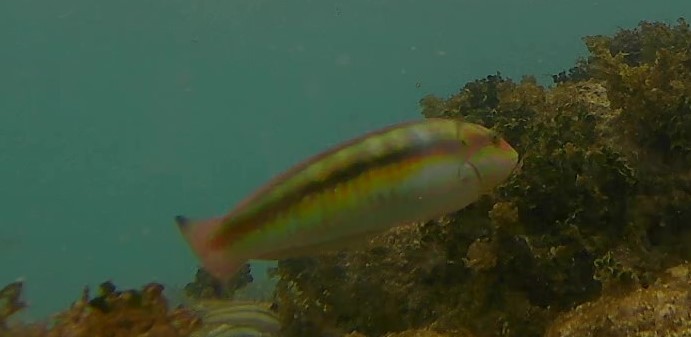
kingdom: Animalia
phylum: Chordata
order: Perciformes
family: Labridae
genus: Halichoeres
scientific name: Halichoeres bivittatus
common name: Slippery dick
